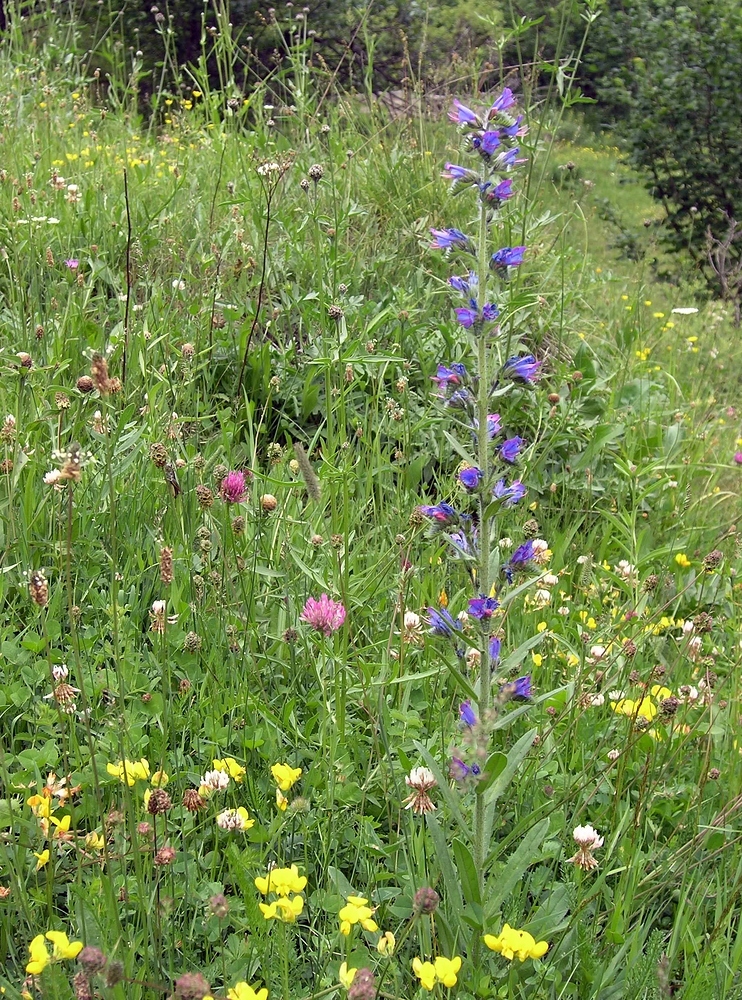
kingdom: Plantae
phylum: Tracheophyta
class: Magnoliopsida
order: Boraginales
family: Boraginaceae
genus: Echium
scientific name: Echium vulgare
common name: Common viper's bugloss
